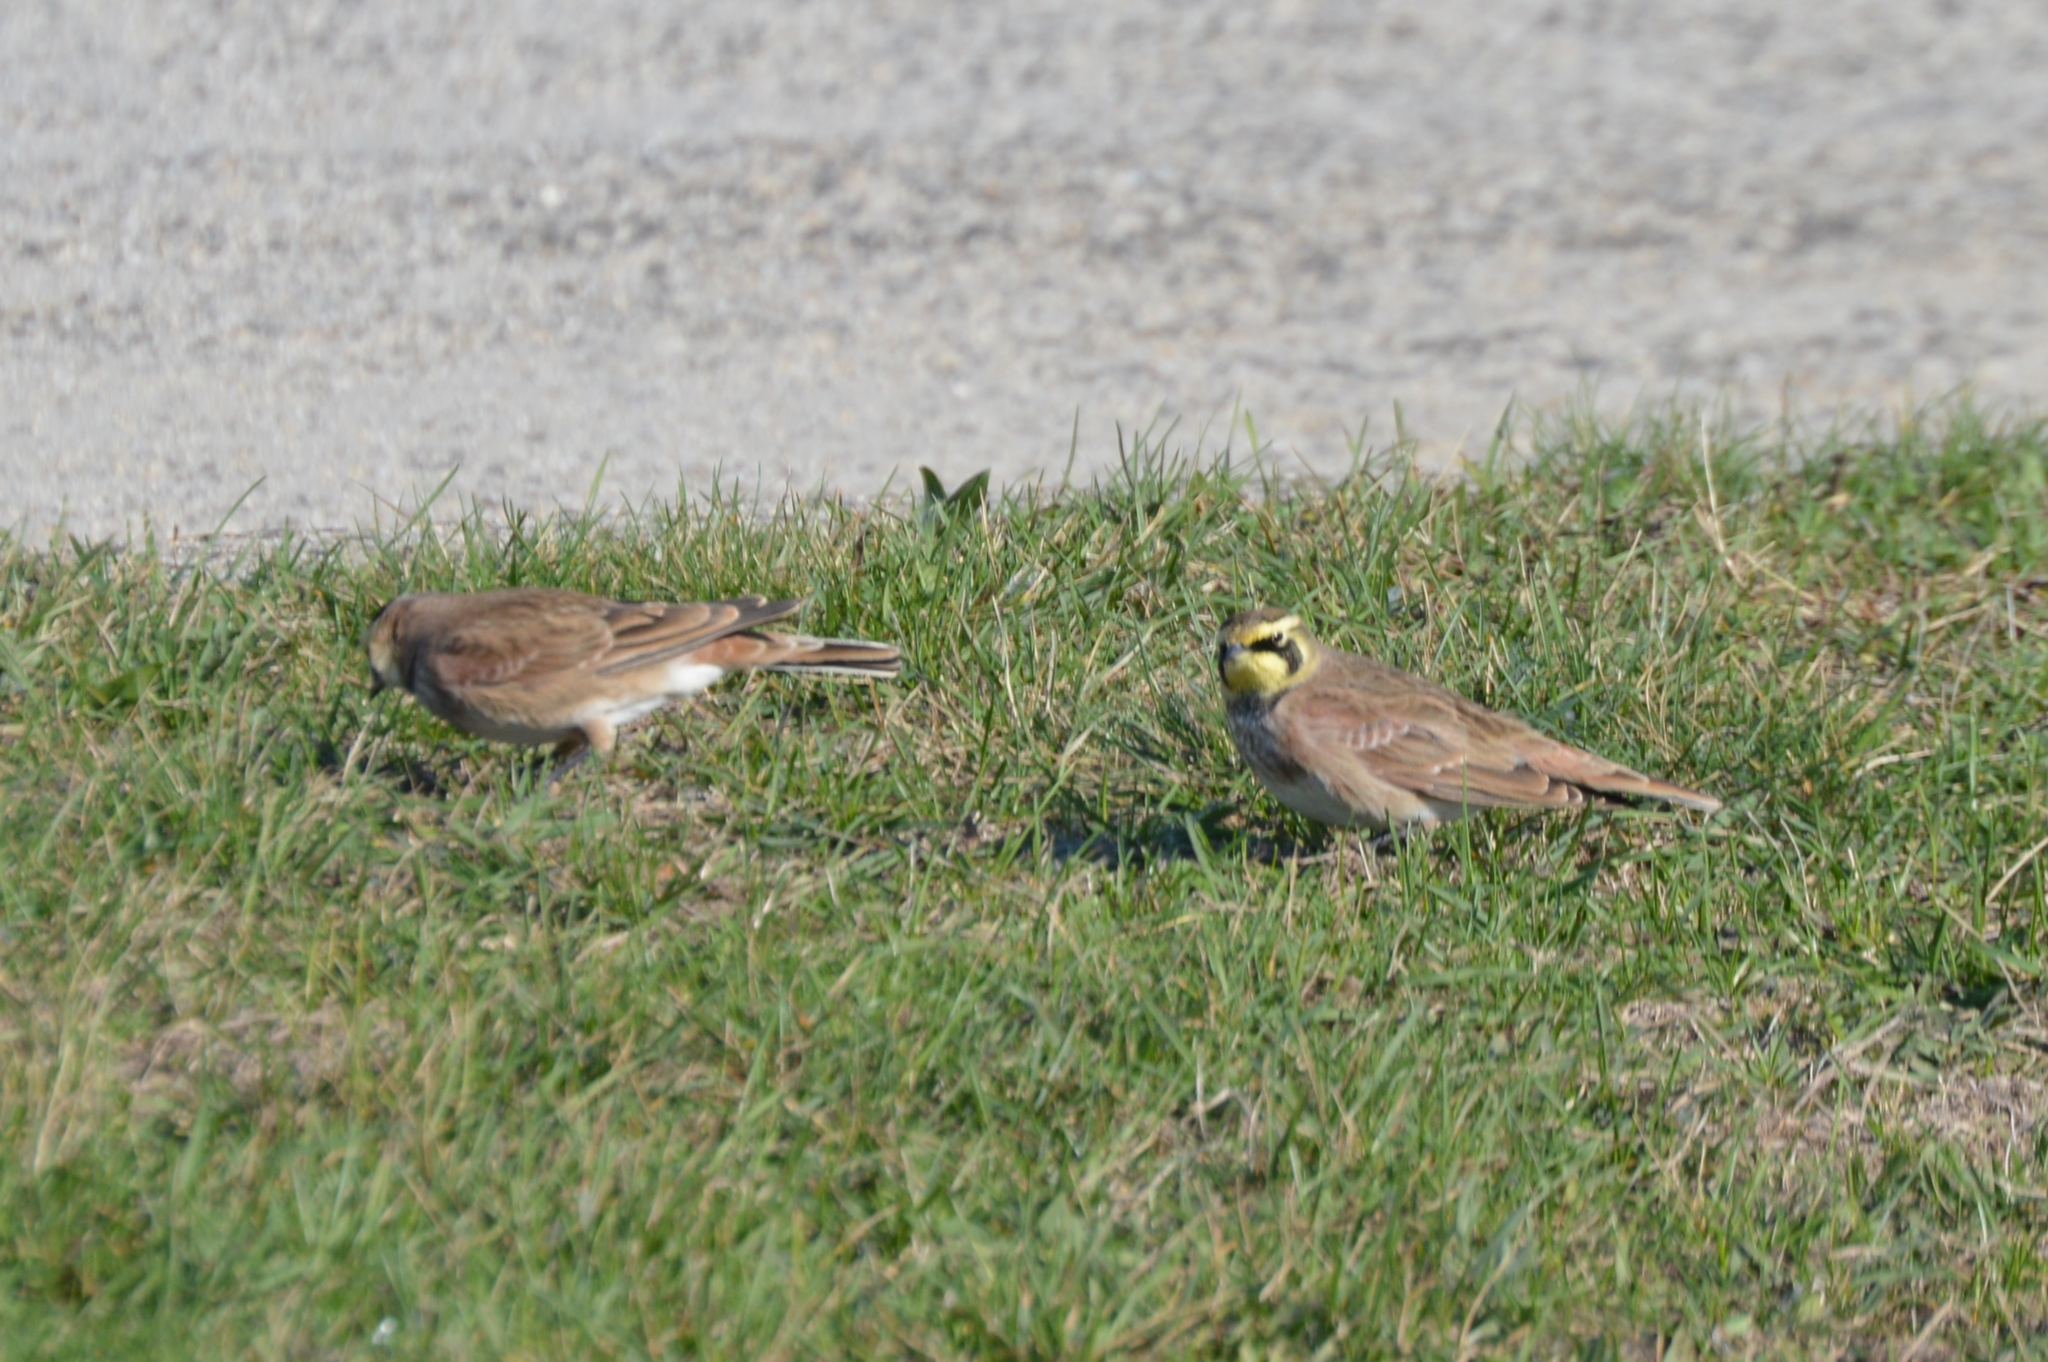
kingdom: Animalia
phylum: Chordata
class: Aves
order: Passeriformes
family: Alaudidae
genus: Eremophila
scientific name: Eremophila alpestris
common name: Horned lark
